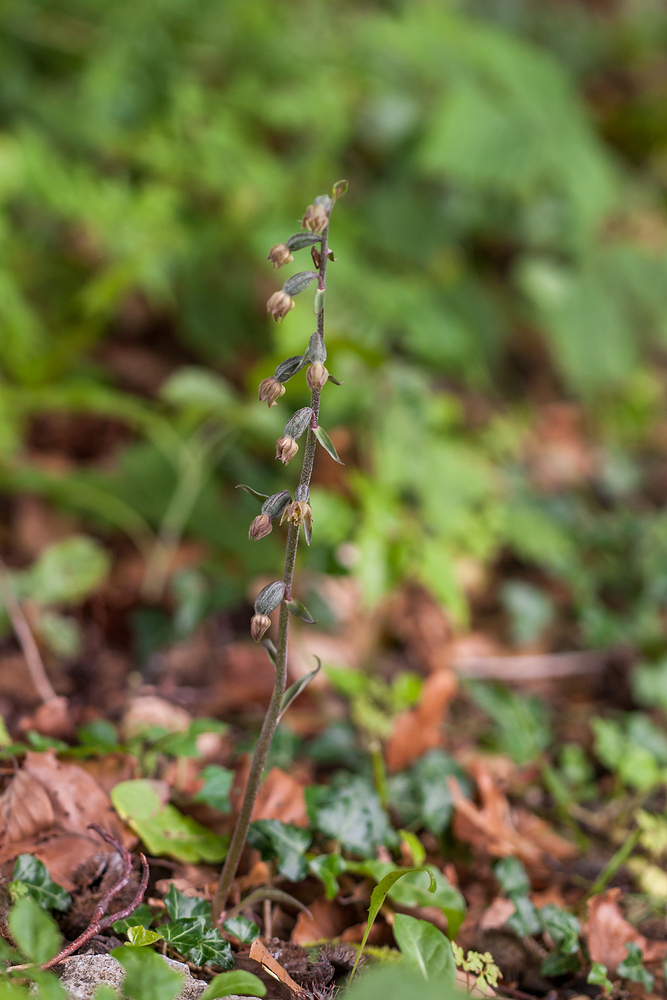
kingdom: Plantae
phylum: Tracheophyta
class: Liliopsida
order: Asparagales
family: Orchidaceae
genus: Epipactis
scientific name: Epipactis microphylla
